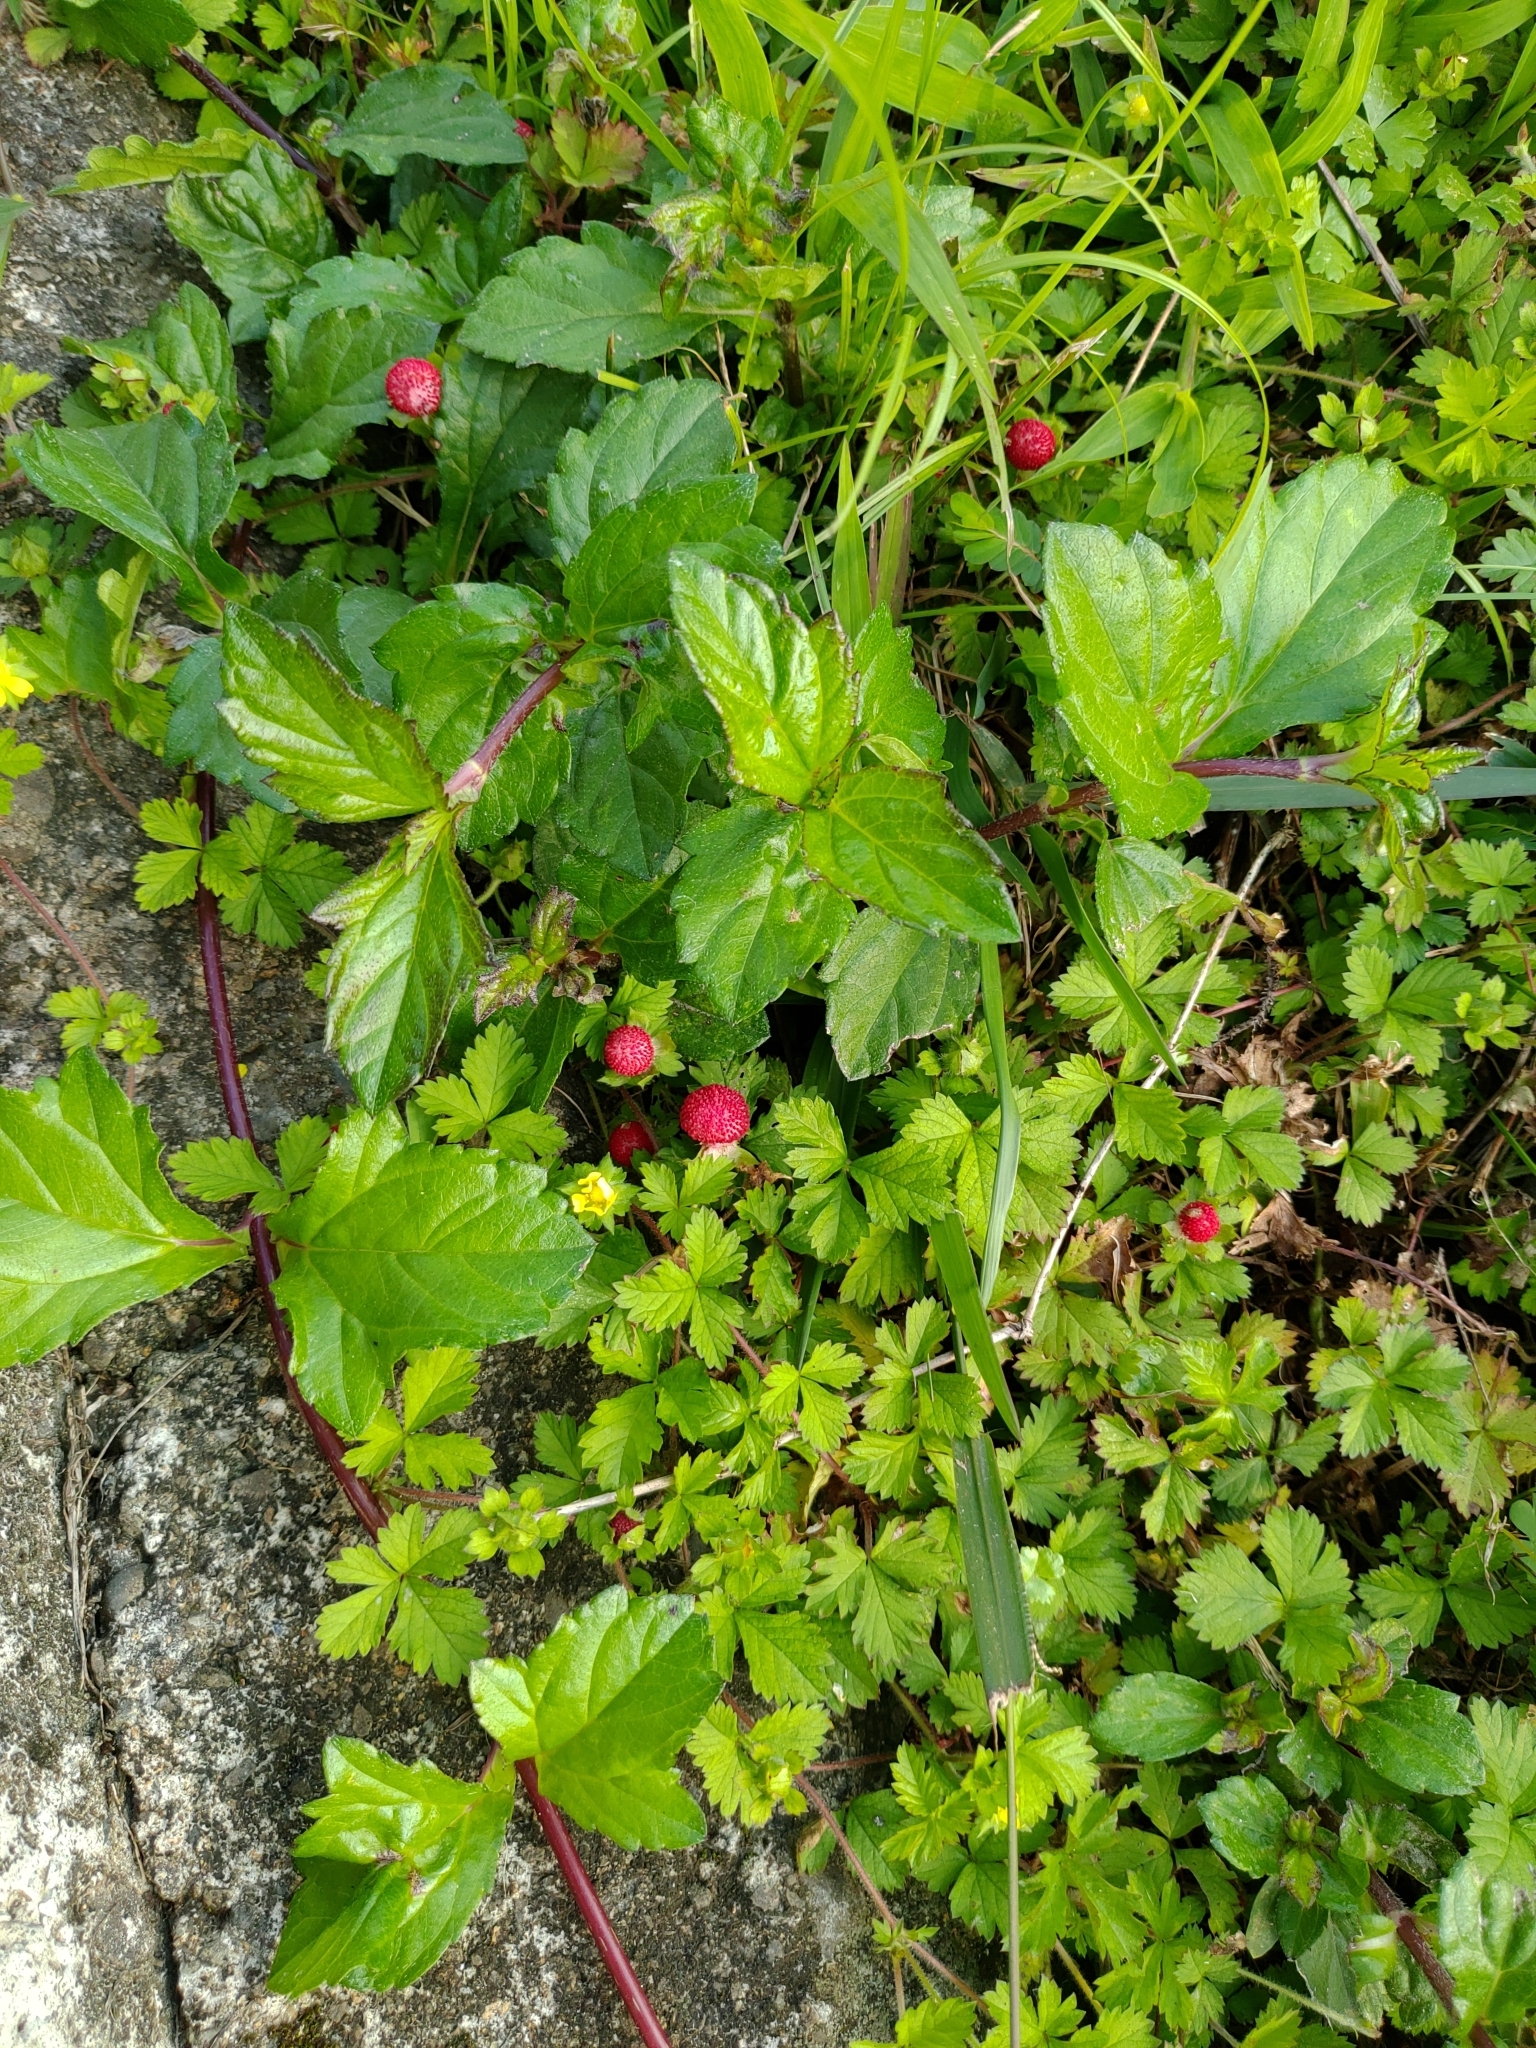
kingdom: Plantae
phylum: Tracheophyta
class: Magnoliopsida
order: Rosales
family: Rosaceae
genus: Potentilla
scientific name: Potentilla wallichiana
